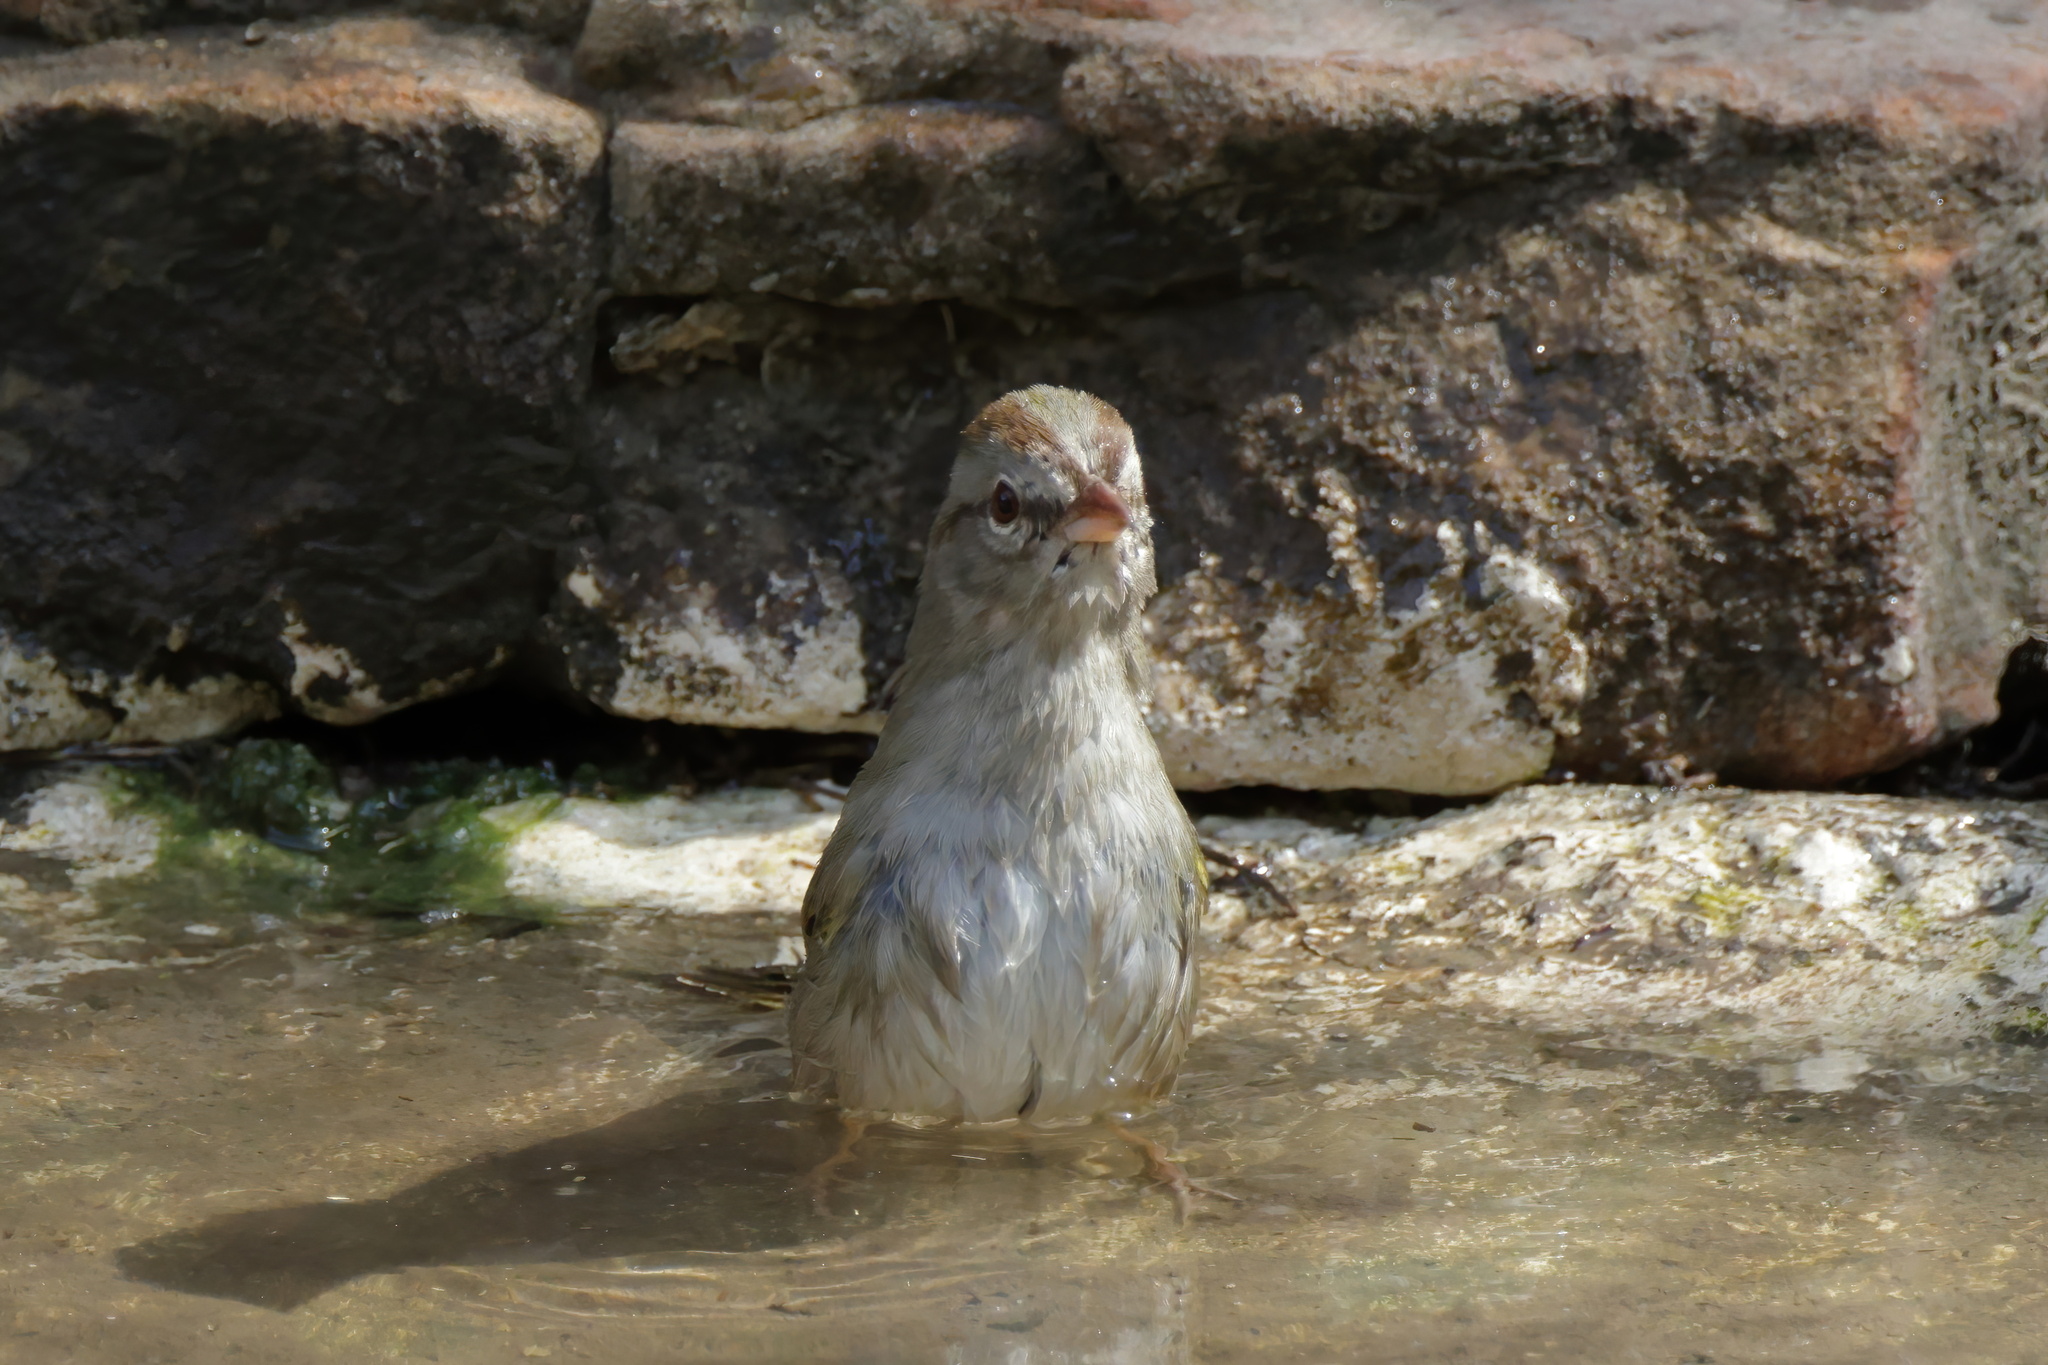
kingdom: Animalia
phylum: Chordata
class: Aves
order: Passeriformes
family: Passerellidae
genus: Arremonops
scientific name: Arremonops rufivirgatus
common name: Olive sparrow
